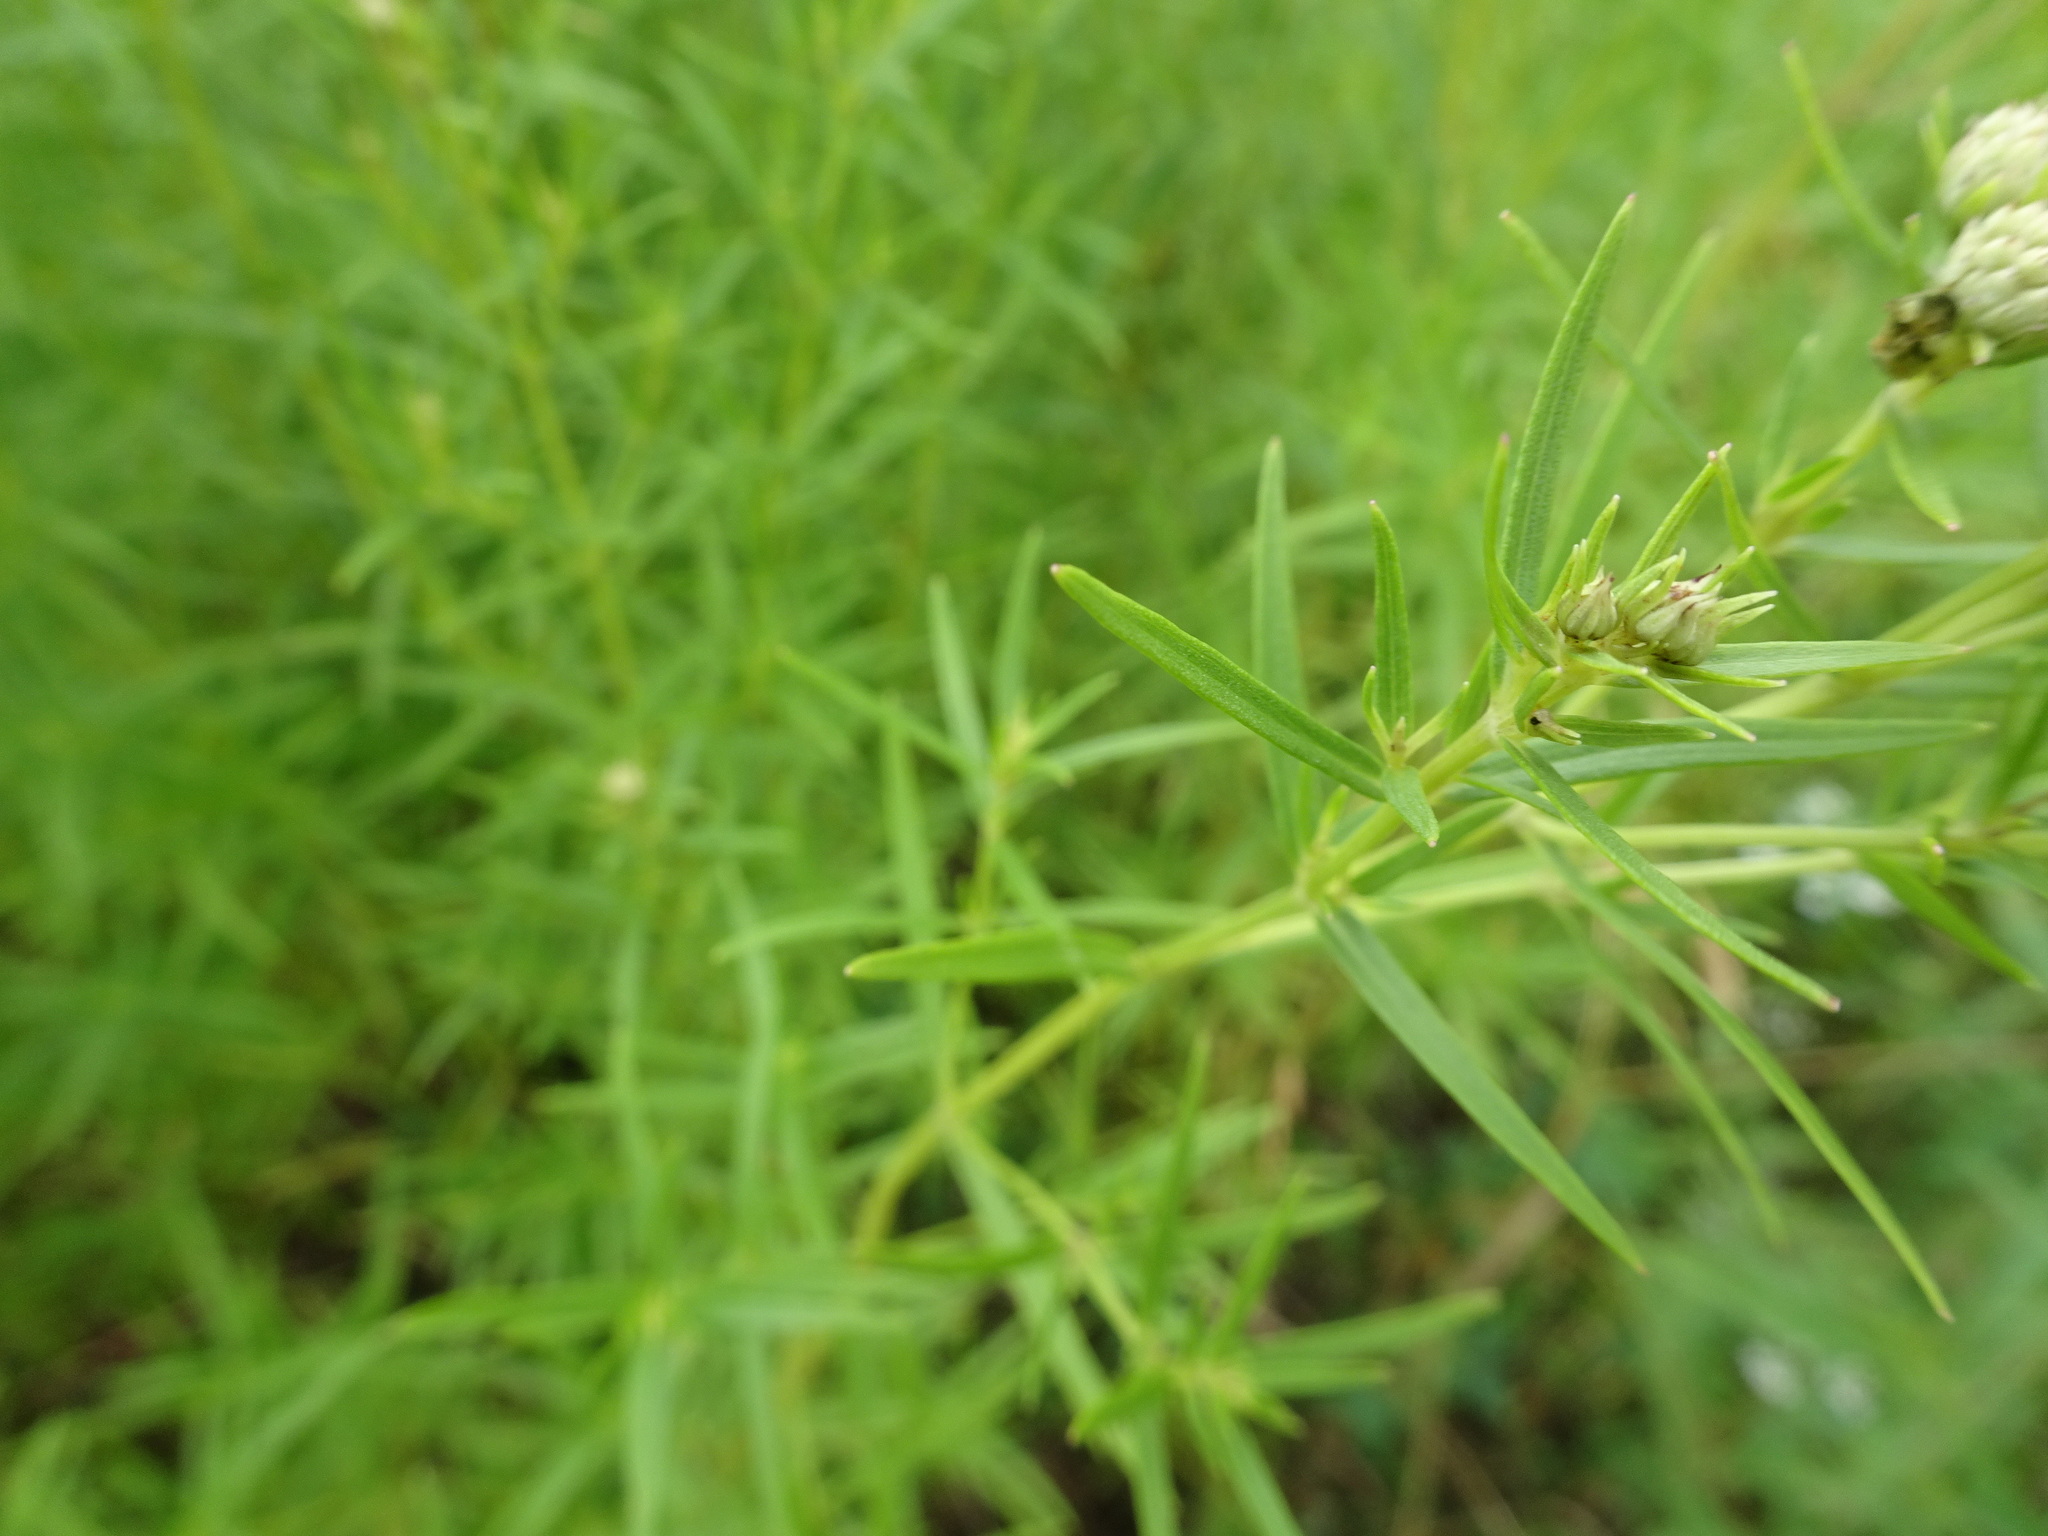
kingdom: Plantae
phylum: Tracheophyta
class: Magnoliopsida
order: Lamiales
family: Lamiaceae
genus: Pycnanthemum
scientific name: Pycnanthemum tenuifolium
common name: Narrow-leaf mountain-mint
